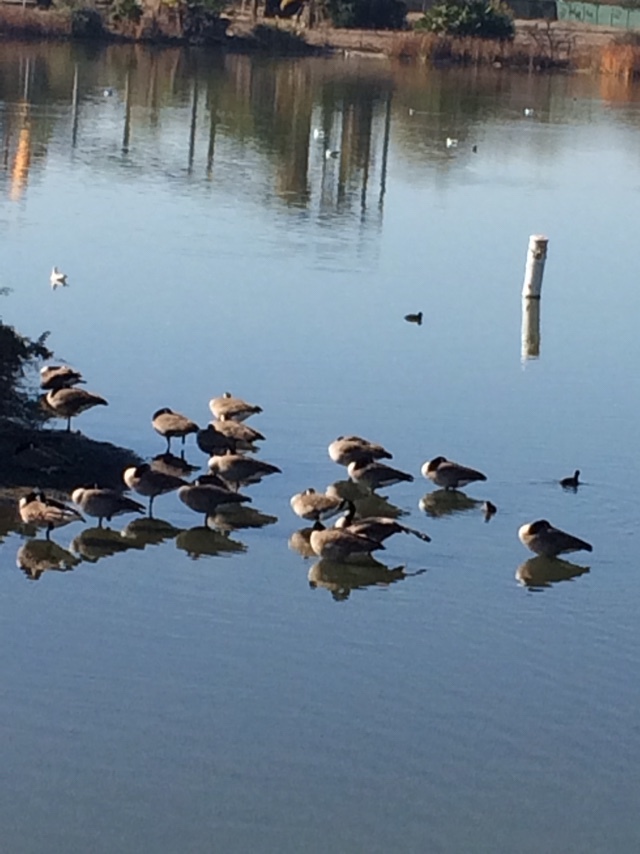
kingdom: Animalia
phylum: Chordata
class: Aves
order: Anseriformes
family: Anatidae
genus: Branta
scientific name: Branta canadensis
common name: Canada goose
